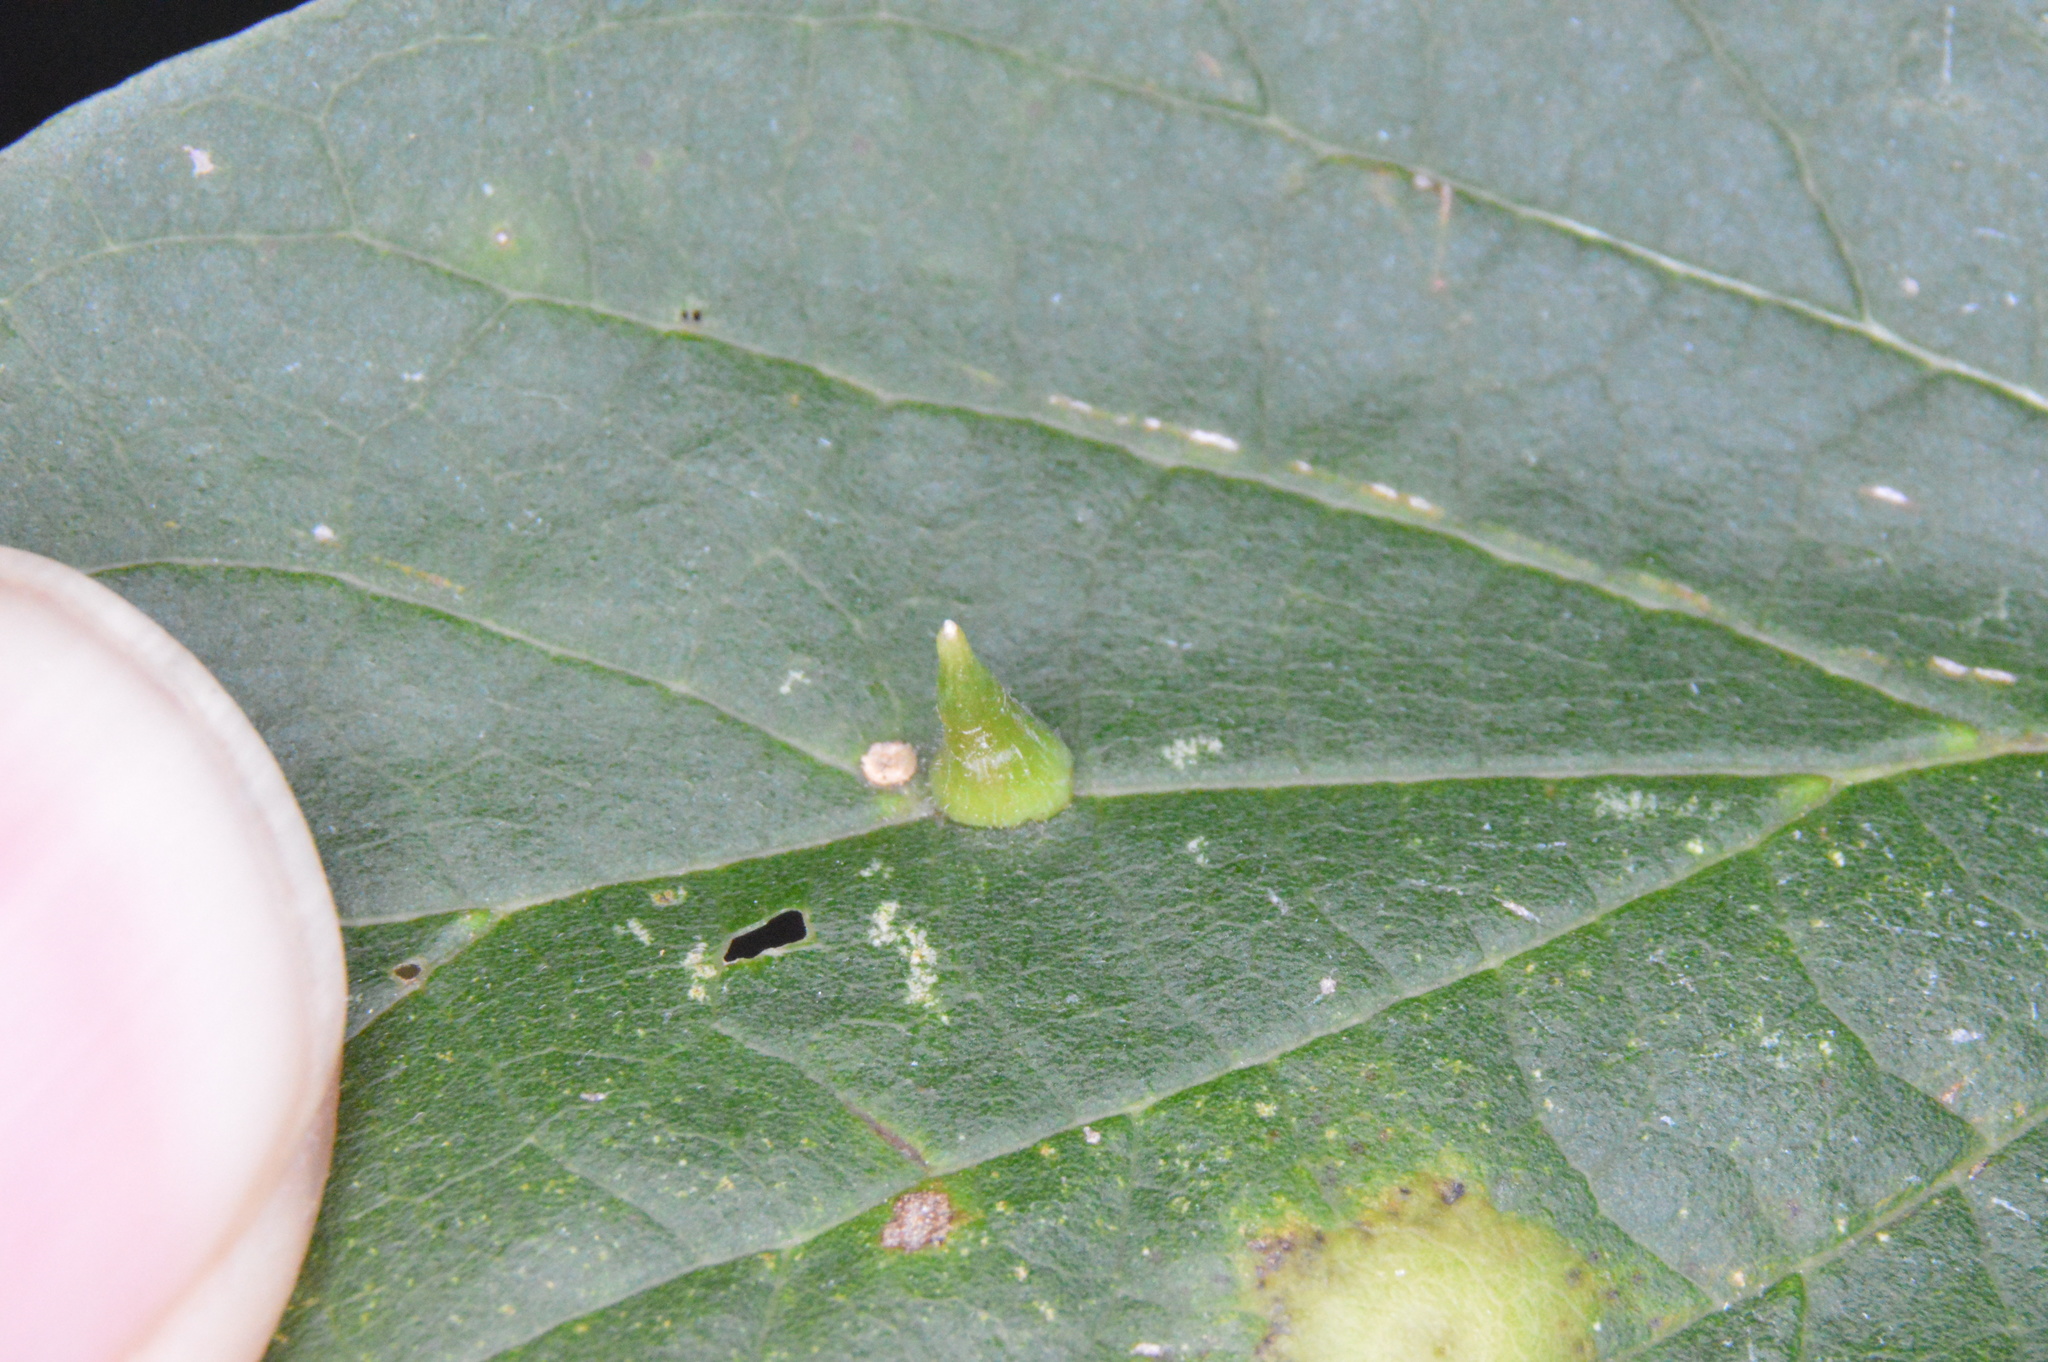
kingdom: Animalia
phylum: Arthropoda
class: Insecta
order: Diptera
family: Cecidomyiidae
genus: Celticecis
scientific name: Celticecis subulata
